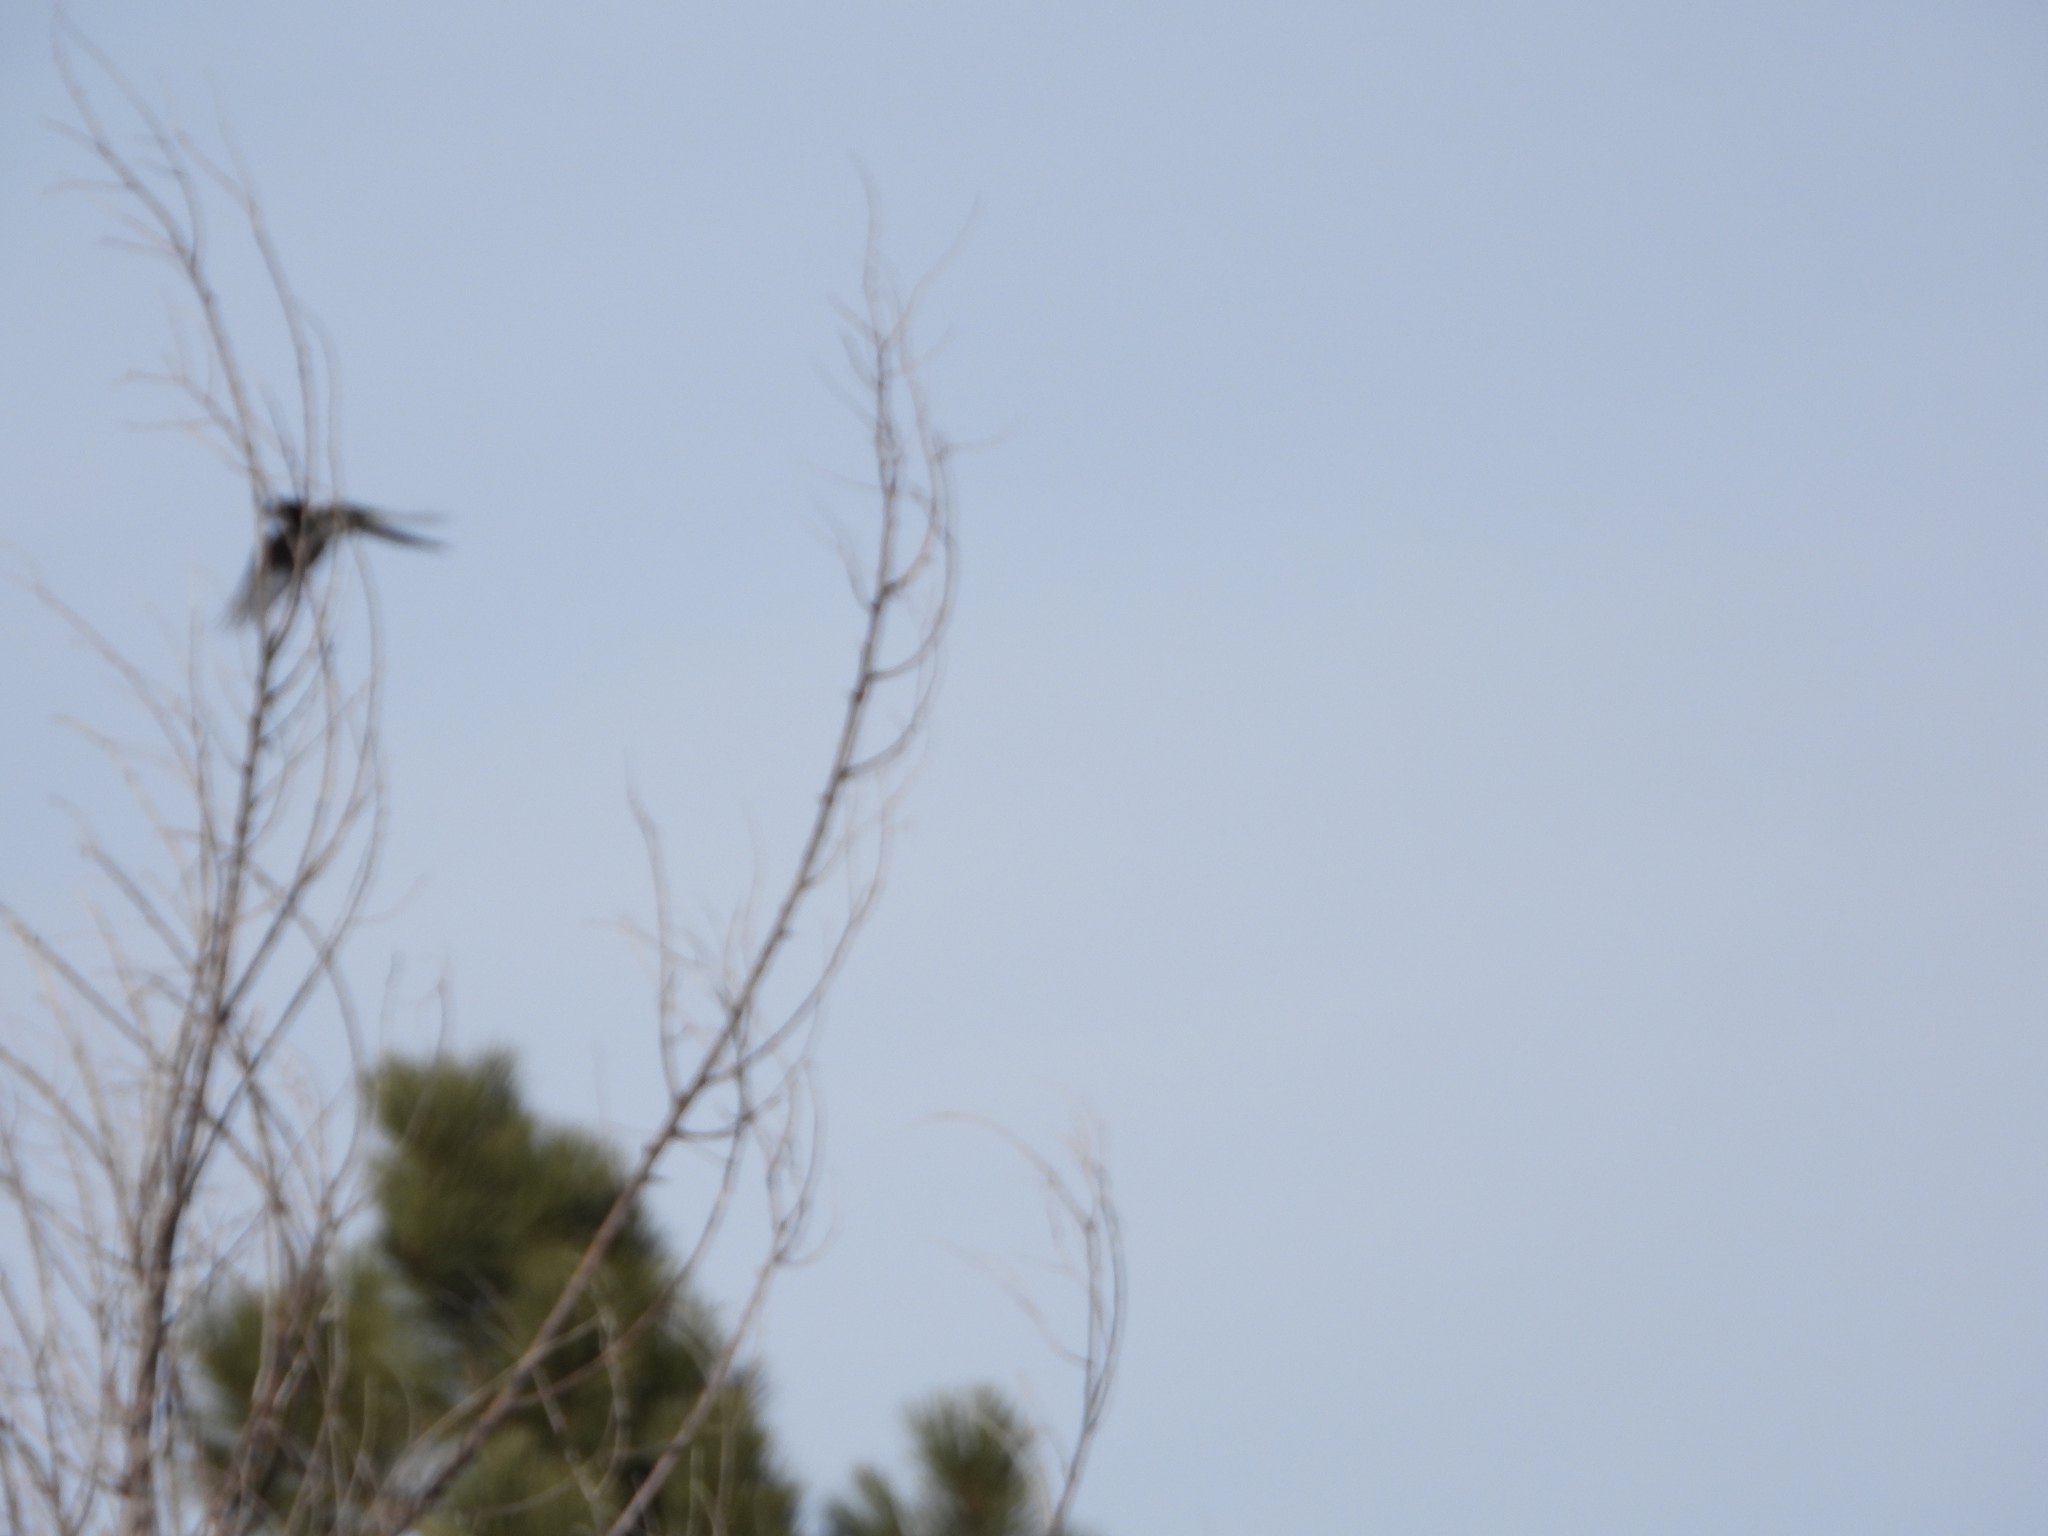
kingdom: Animalia
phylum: Chordata
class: Aves
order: Passeriformes
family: Corvidae
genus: Pica
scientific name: Pica hudsonia
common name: Black-billed magpie
